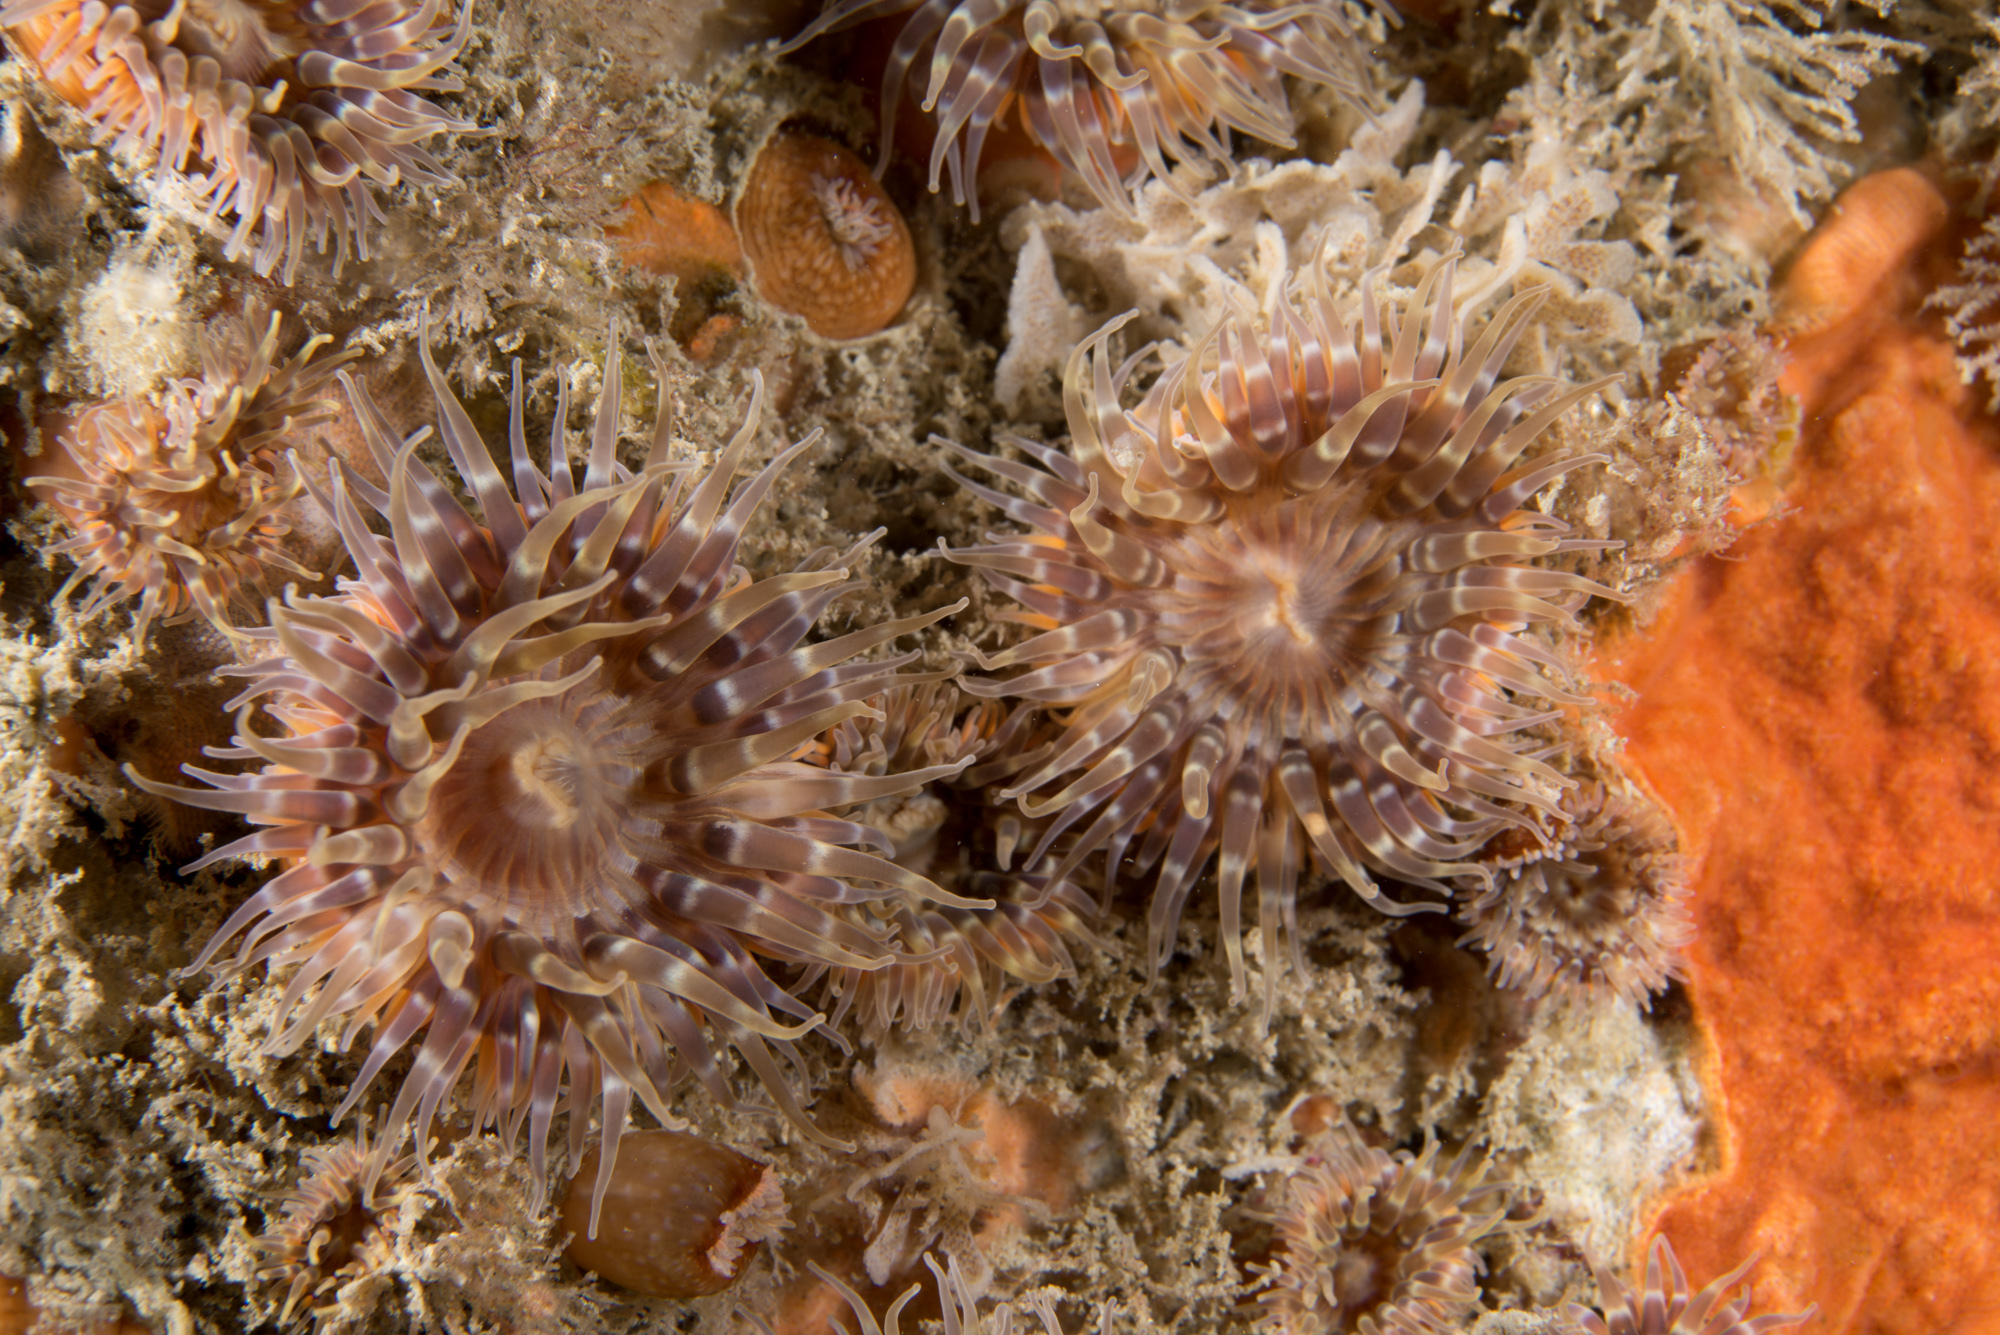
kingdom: Animalia
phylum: Cnidaria
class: Anthozoa
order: Actiniaria
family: Sagartiidae
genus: Cylista
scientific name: Cylista elegans
